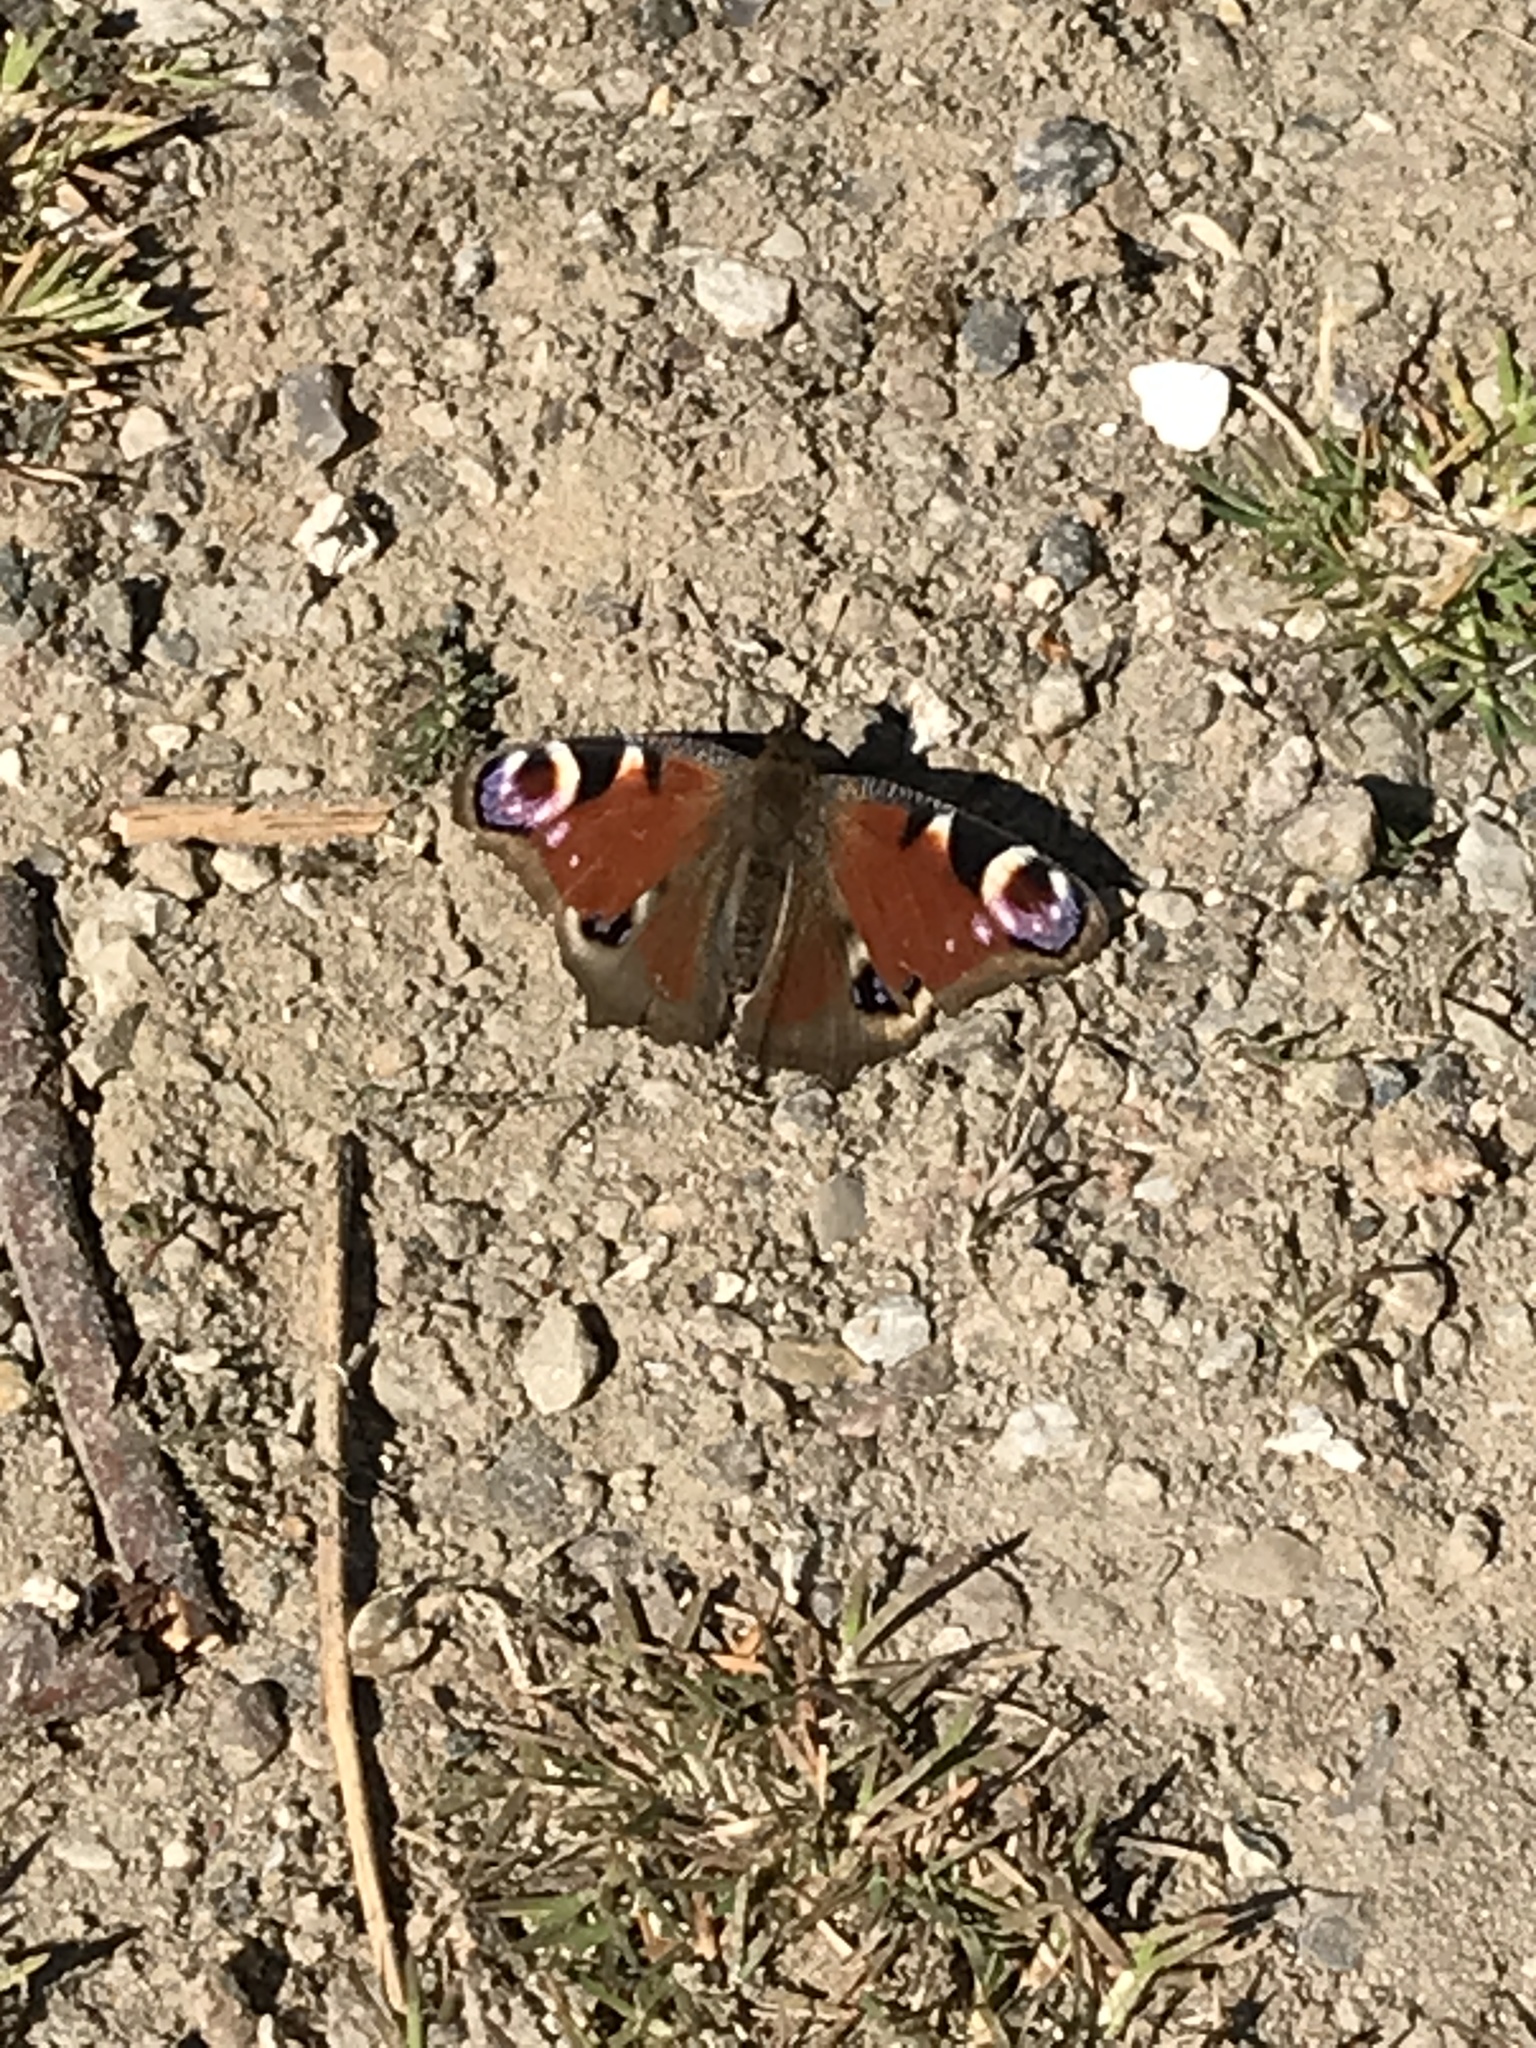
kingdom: Animalia
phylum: Arthropoda
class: Insecta
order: Lepidoptera
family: Nymphalidae
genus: Aglais
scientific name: Aglais io
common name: Peacock
